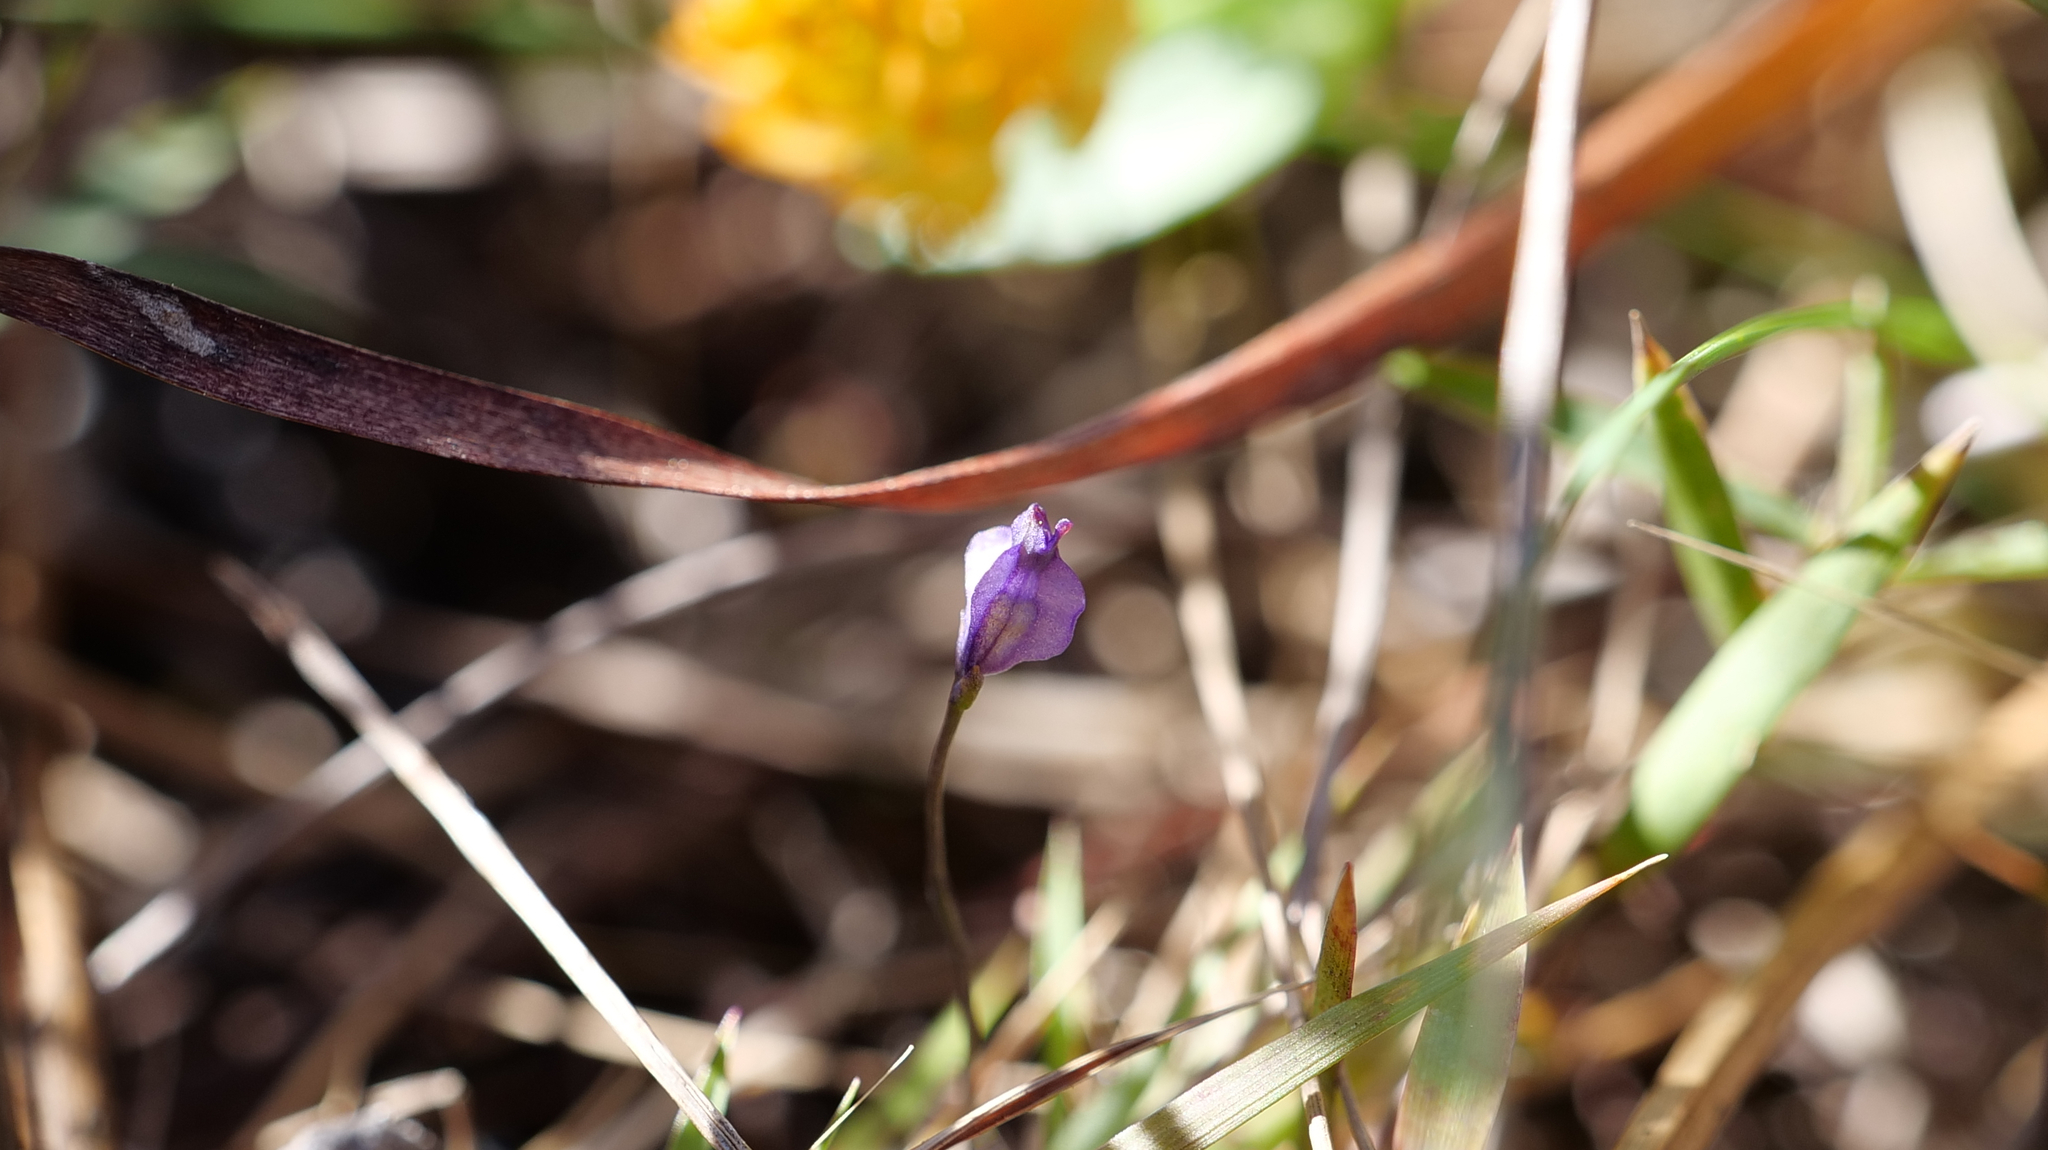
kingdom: Plantae
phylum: Tracheophyta
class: Liliopsida
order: Dioscoreales
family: Burmanniaceae
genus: Burmannia
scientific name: Burmannia biflora
